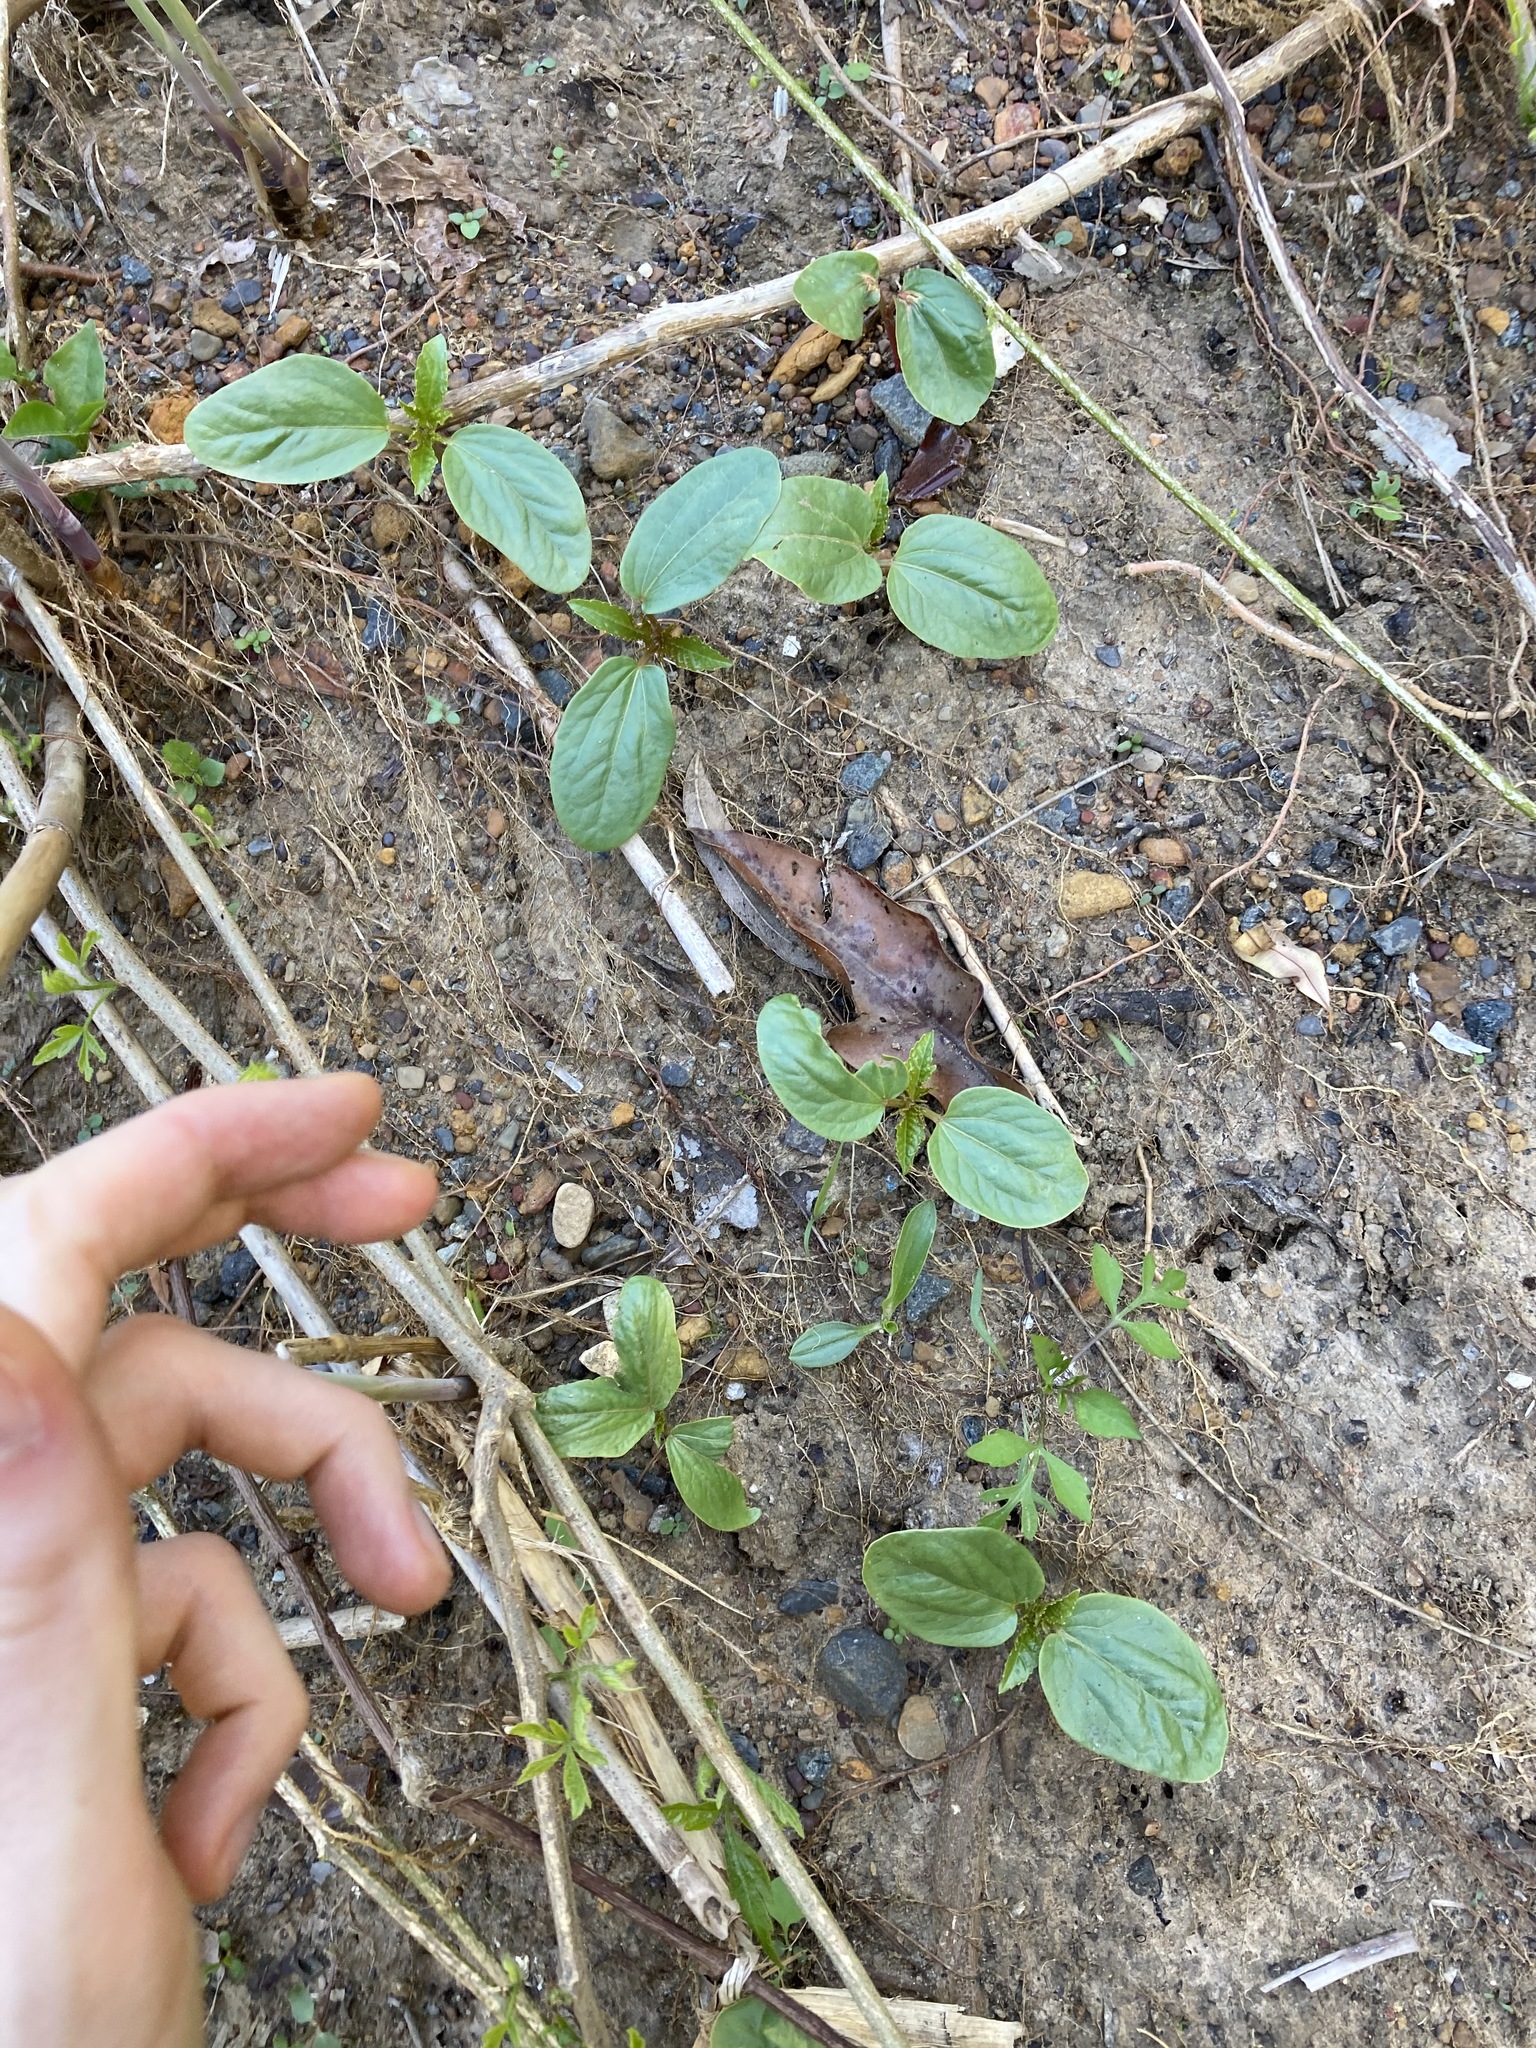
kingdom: Plantae
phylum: Tracheophyta
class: Magnoliopsida
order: Malpighiales
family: Euphorbiaceae
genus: Ricinus
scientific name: Ricinus communis
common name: Castor-oil-plant
